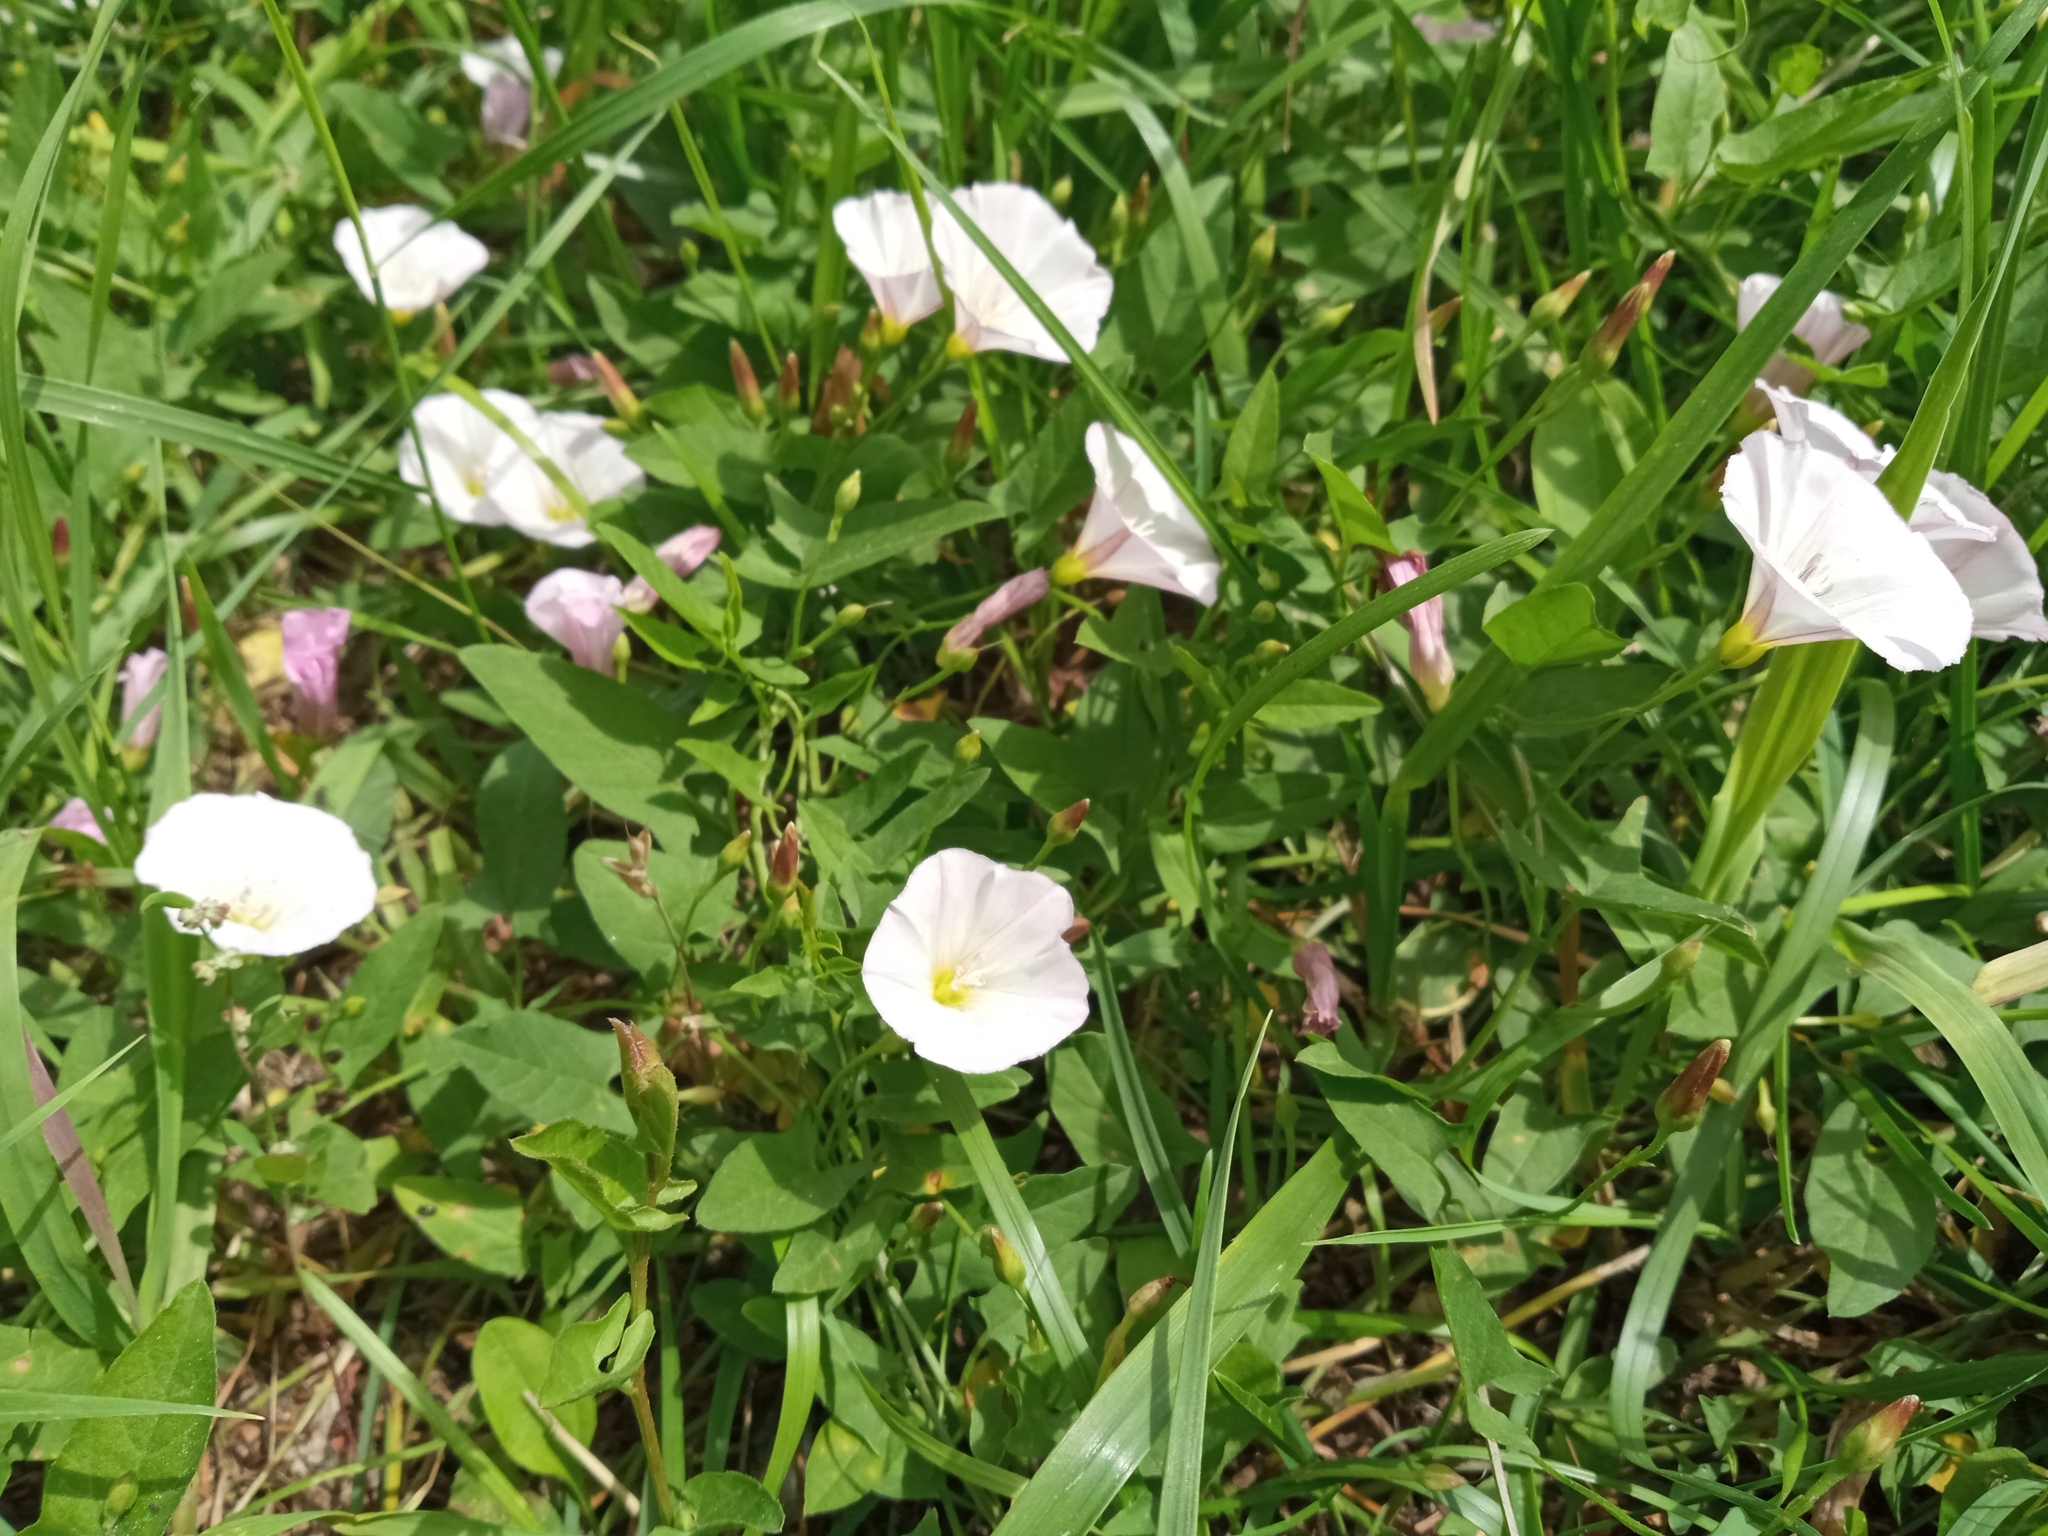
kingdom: Plantae
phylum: Tracheophyta
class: Magnoliopsida
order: Solanales
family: Convolvulaceae
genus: Convolvulus
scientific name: Convolvulus arvensis
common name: Field bindweed
